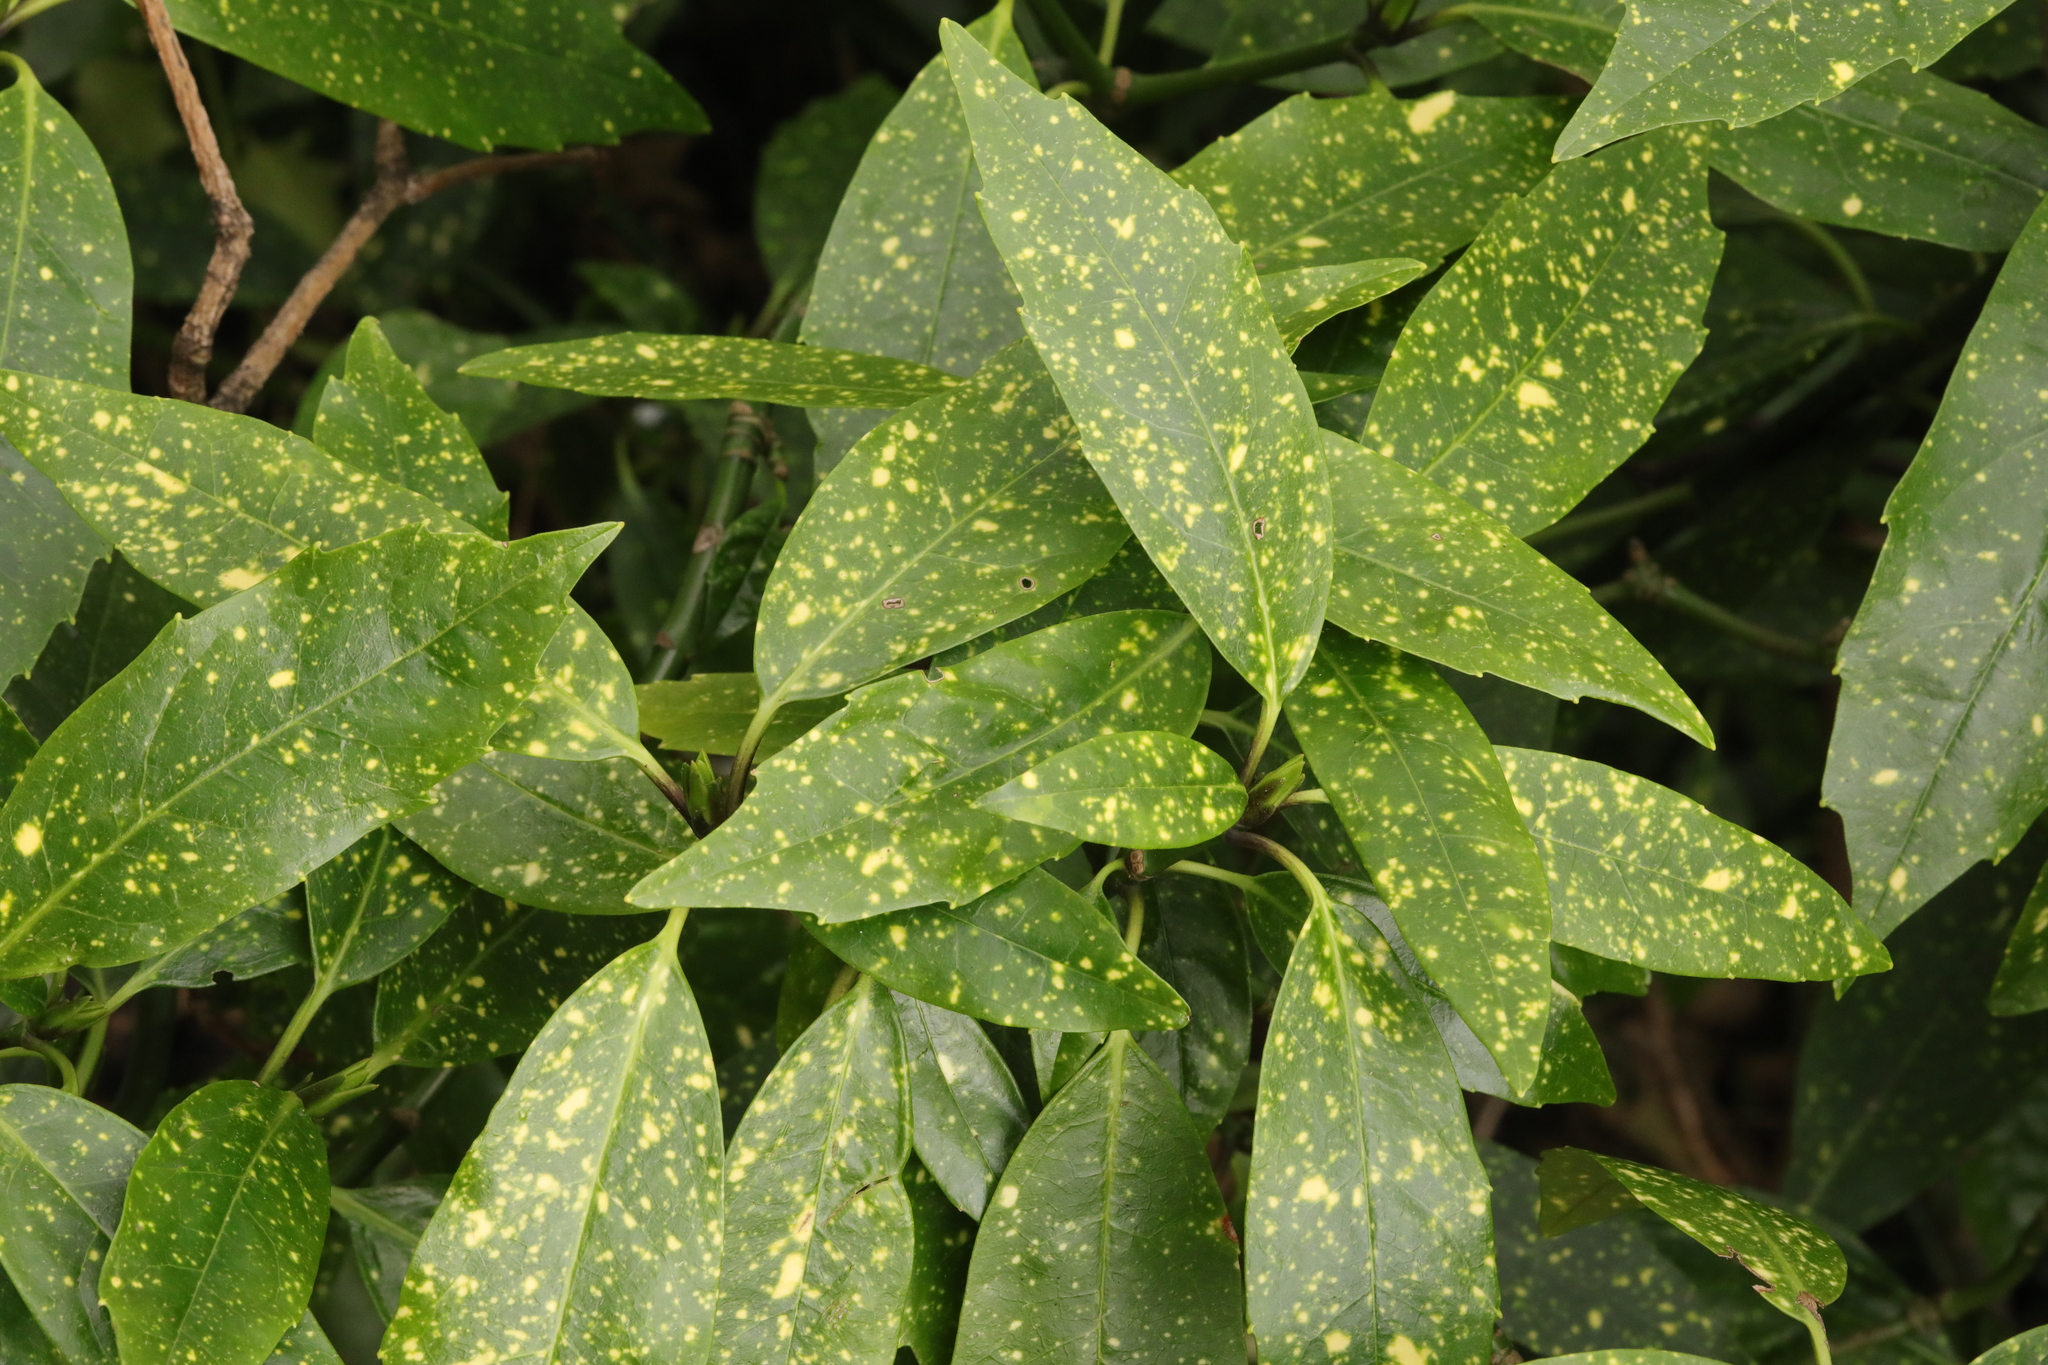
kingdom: Plantae
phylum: Tracheophyta
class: Magnoliopsida
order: Garryales
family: Garryaceae
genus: Aucuba
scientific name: Aucuba japonica
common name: Spotted-laurel
